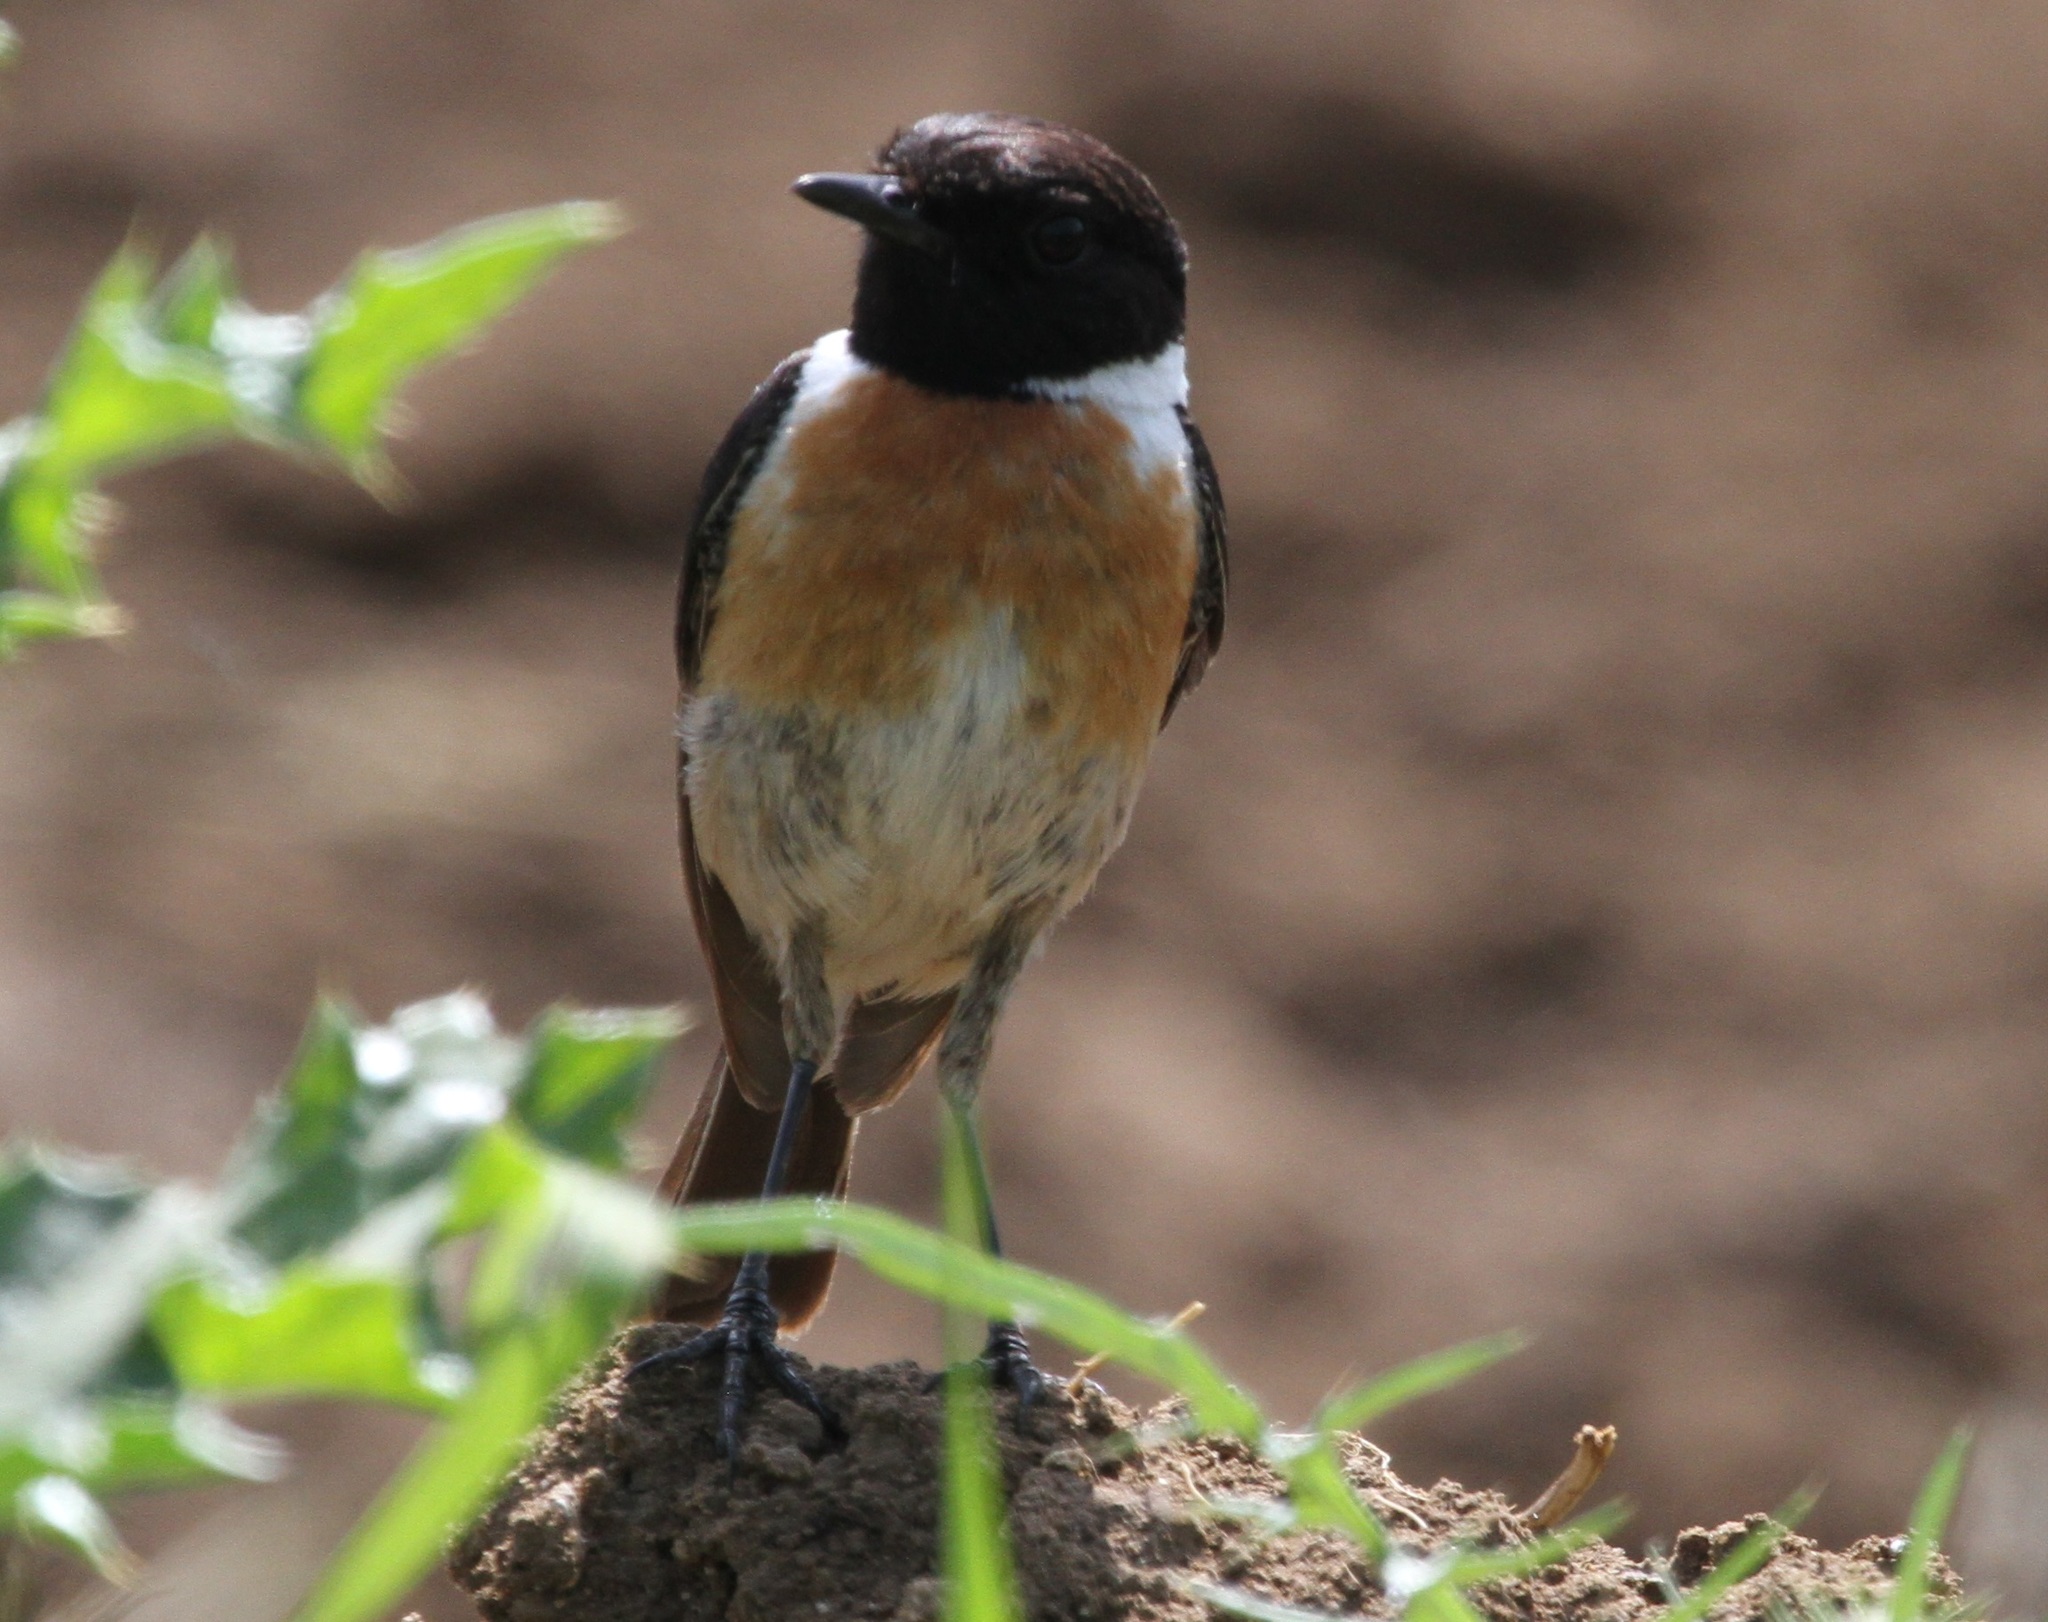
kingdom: Animalia
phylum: Chordata
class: Aves
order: Passeriformes
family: Muscicapidae
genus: Saxicola
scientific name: Saxicola rubicola
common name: European stonechat
